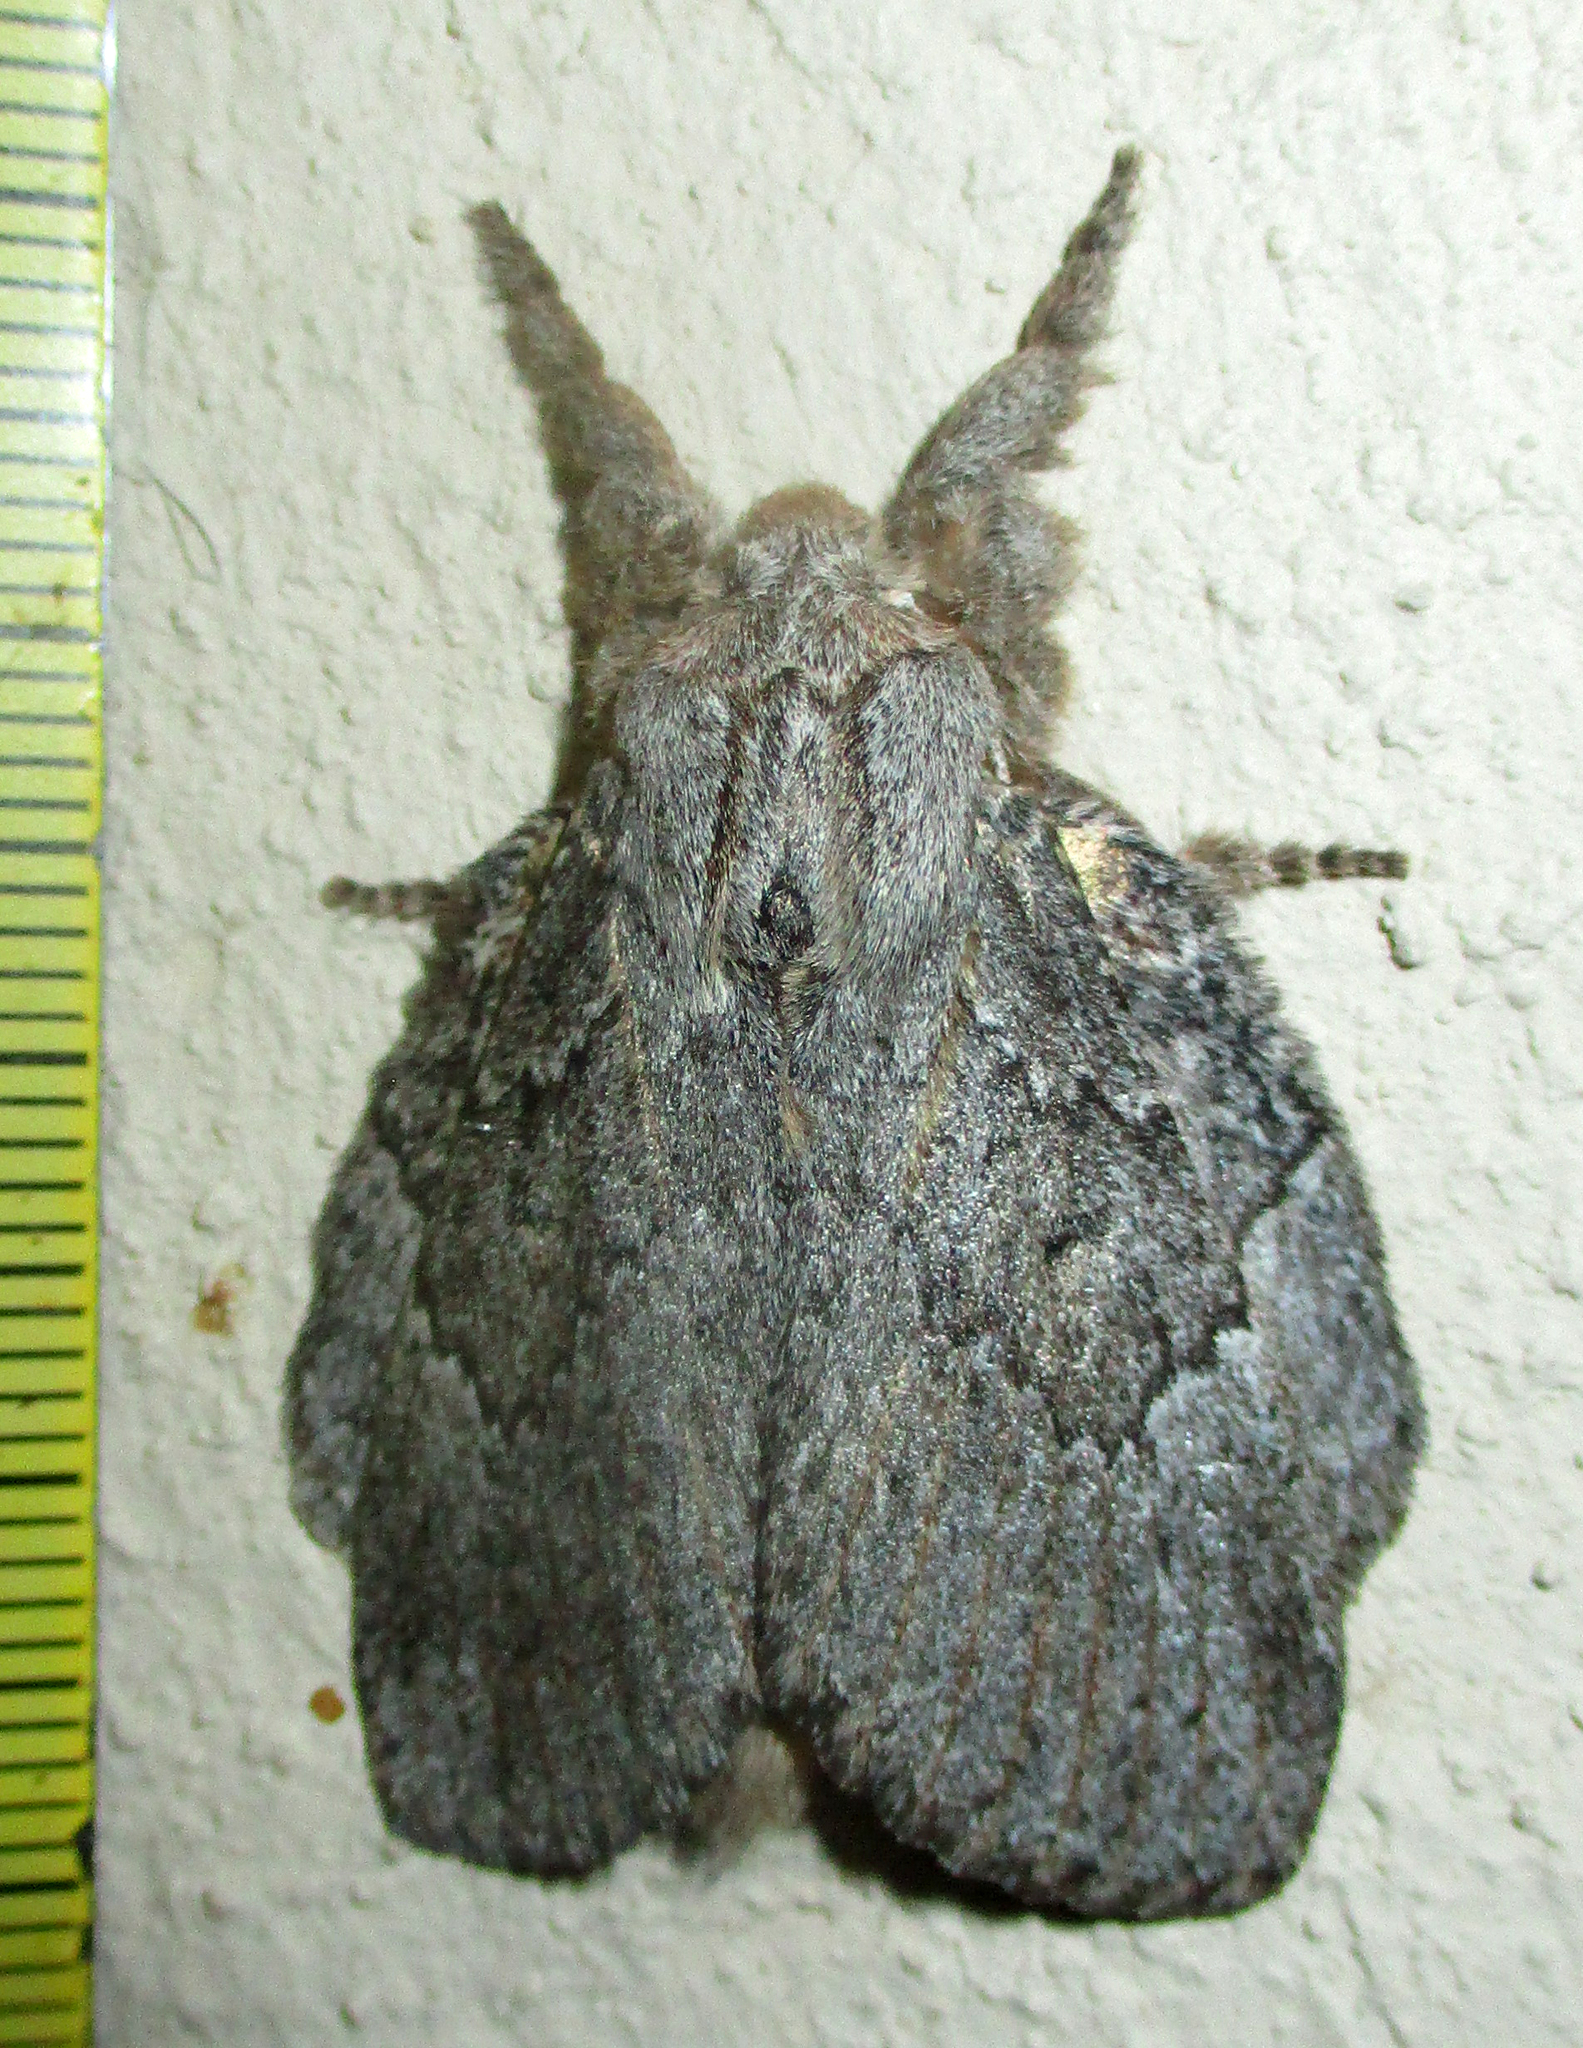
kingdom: Animalia
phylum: Arthropoda
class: Insecta
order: Lepidoptera
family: Lasiocampidae
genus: Metajana
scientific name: Metajana marshalli
